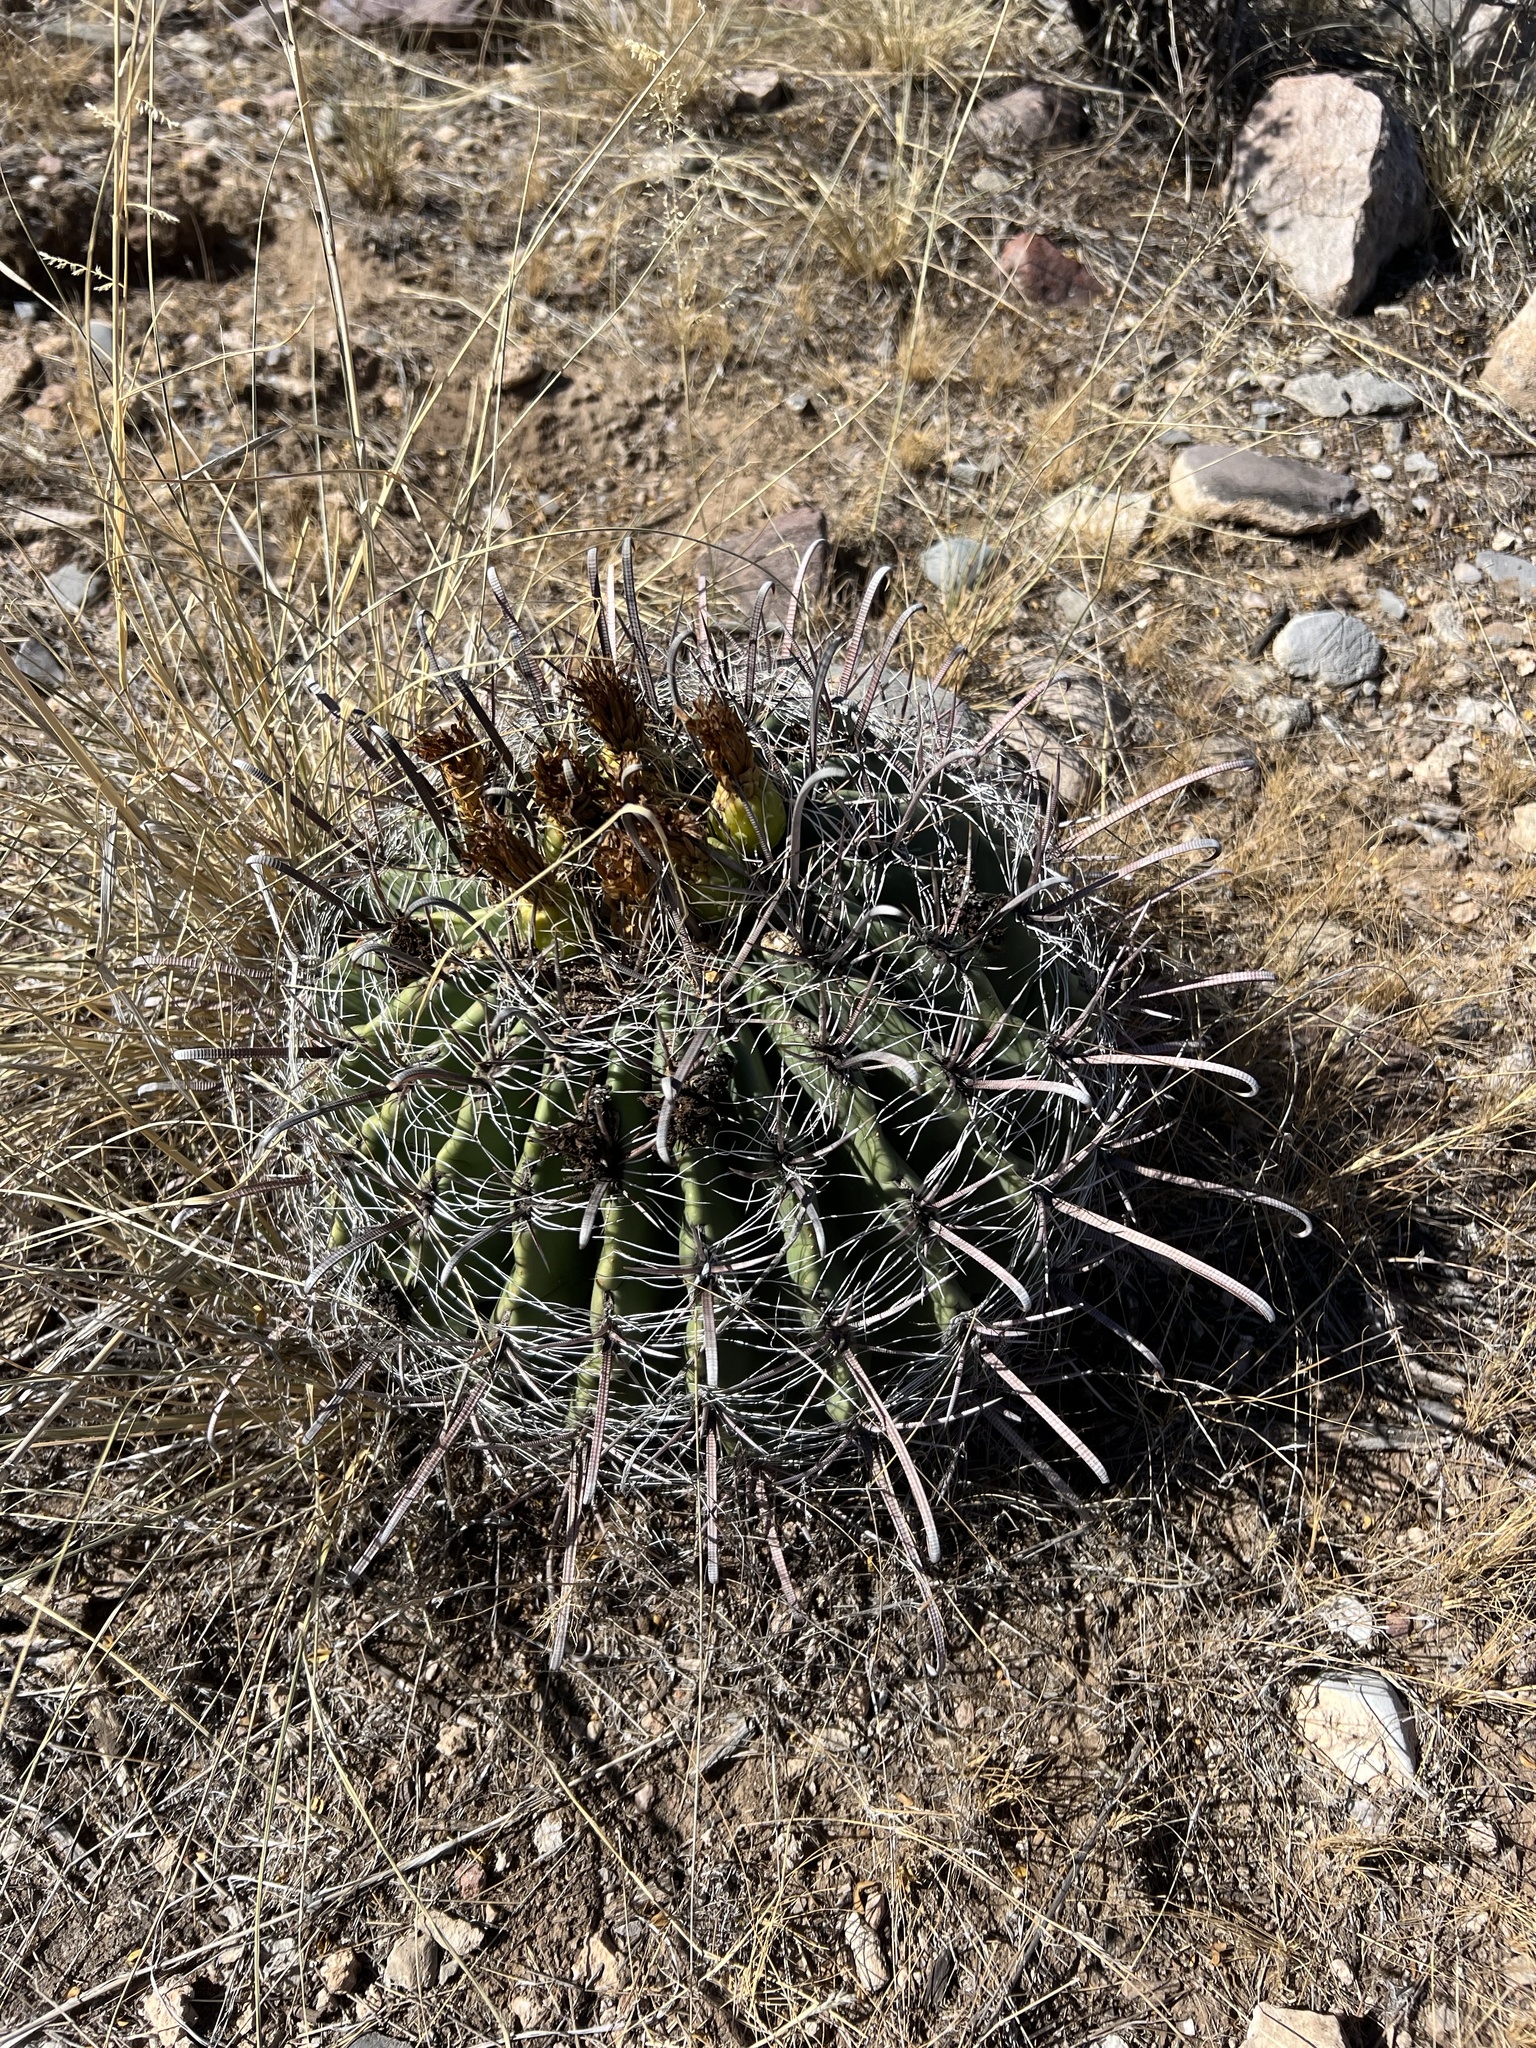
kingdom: Plantae
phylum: Tracheophyta
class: Magnoliopsida
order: Caryophyllales
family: Cactaceae
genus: Ferocactus
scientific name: Ferocactus wislizeni
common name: Candy barrel cactus
